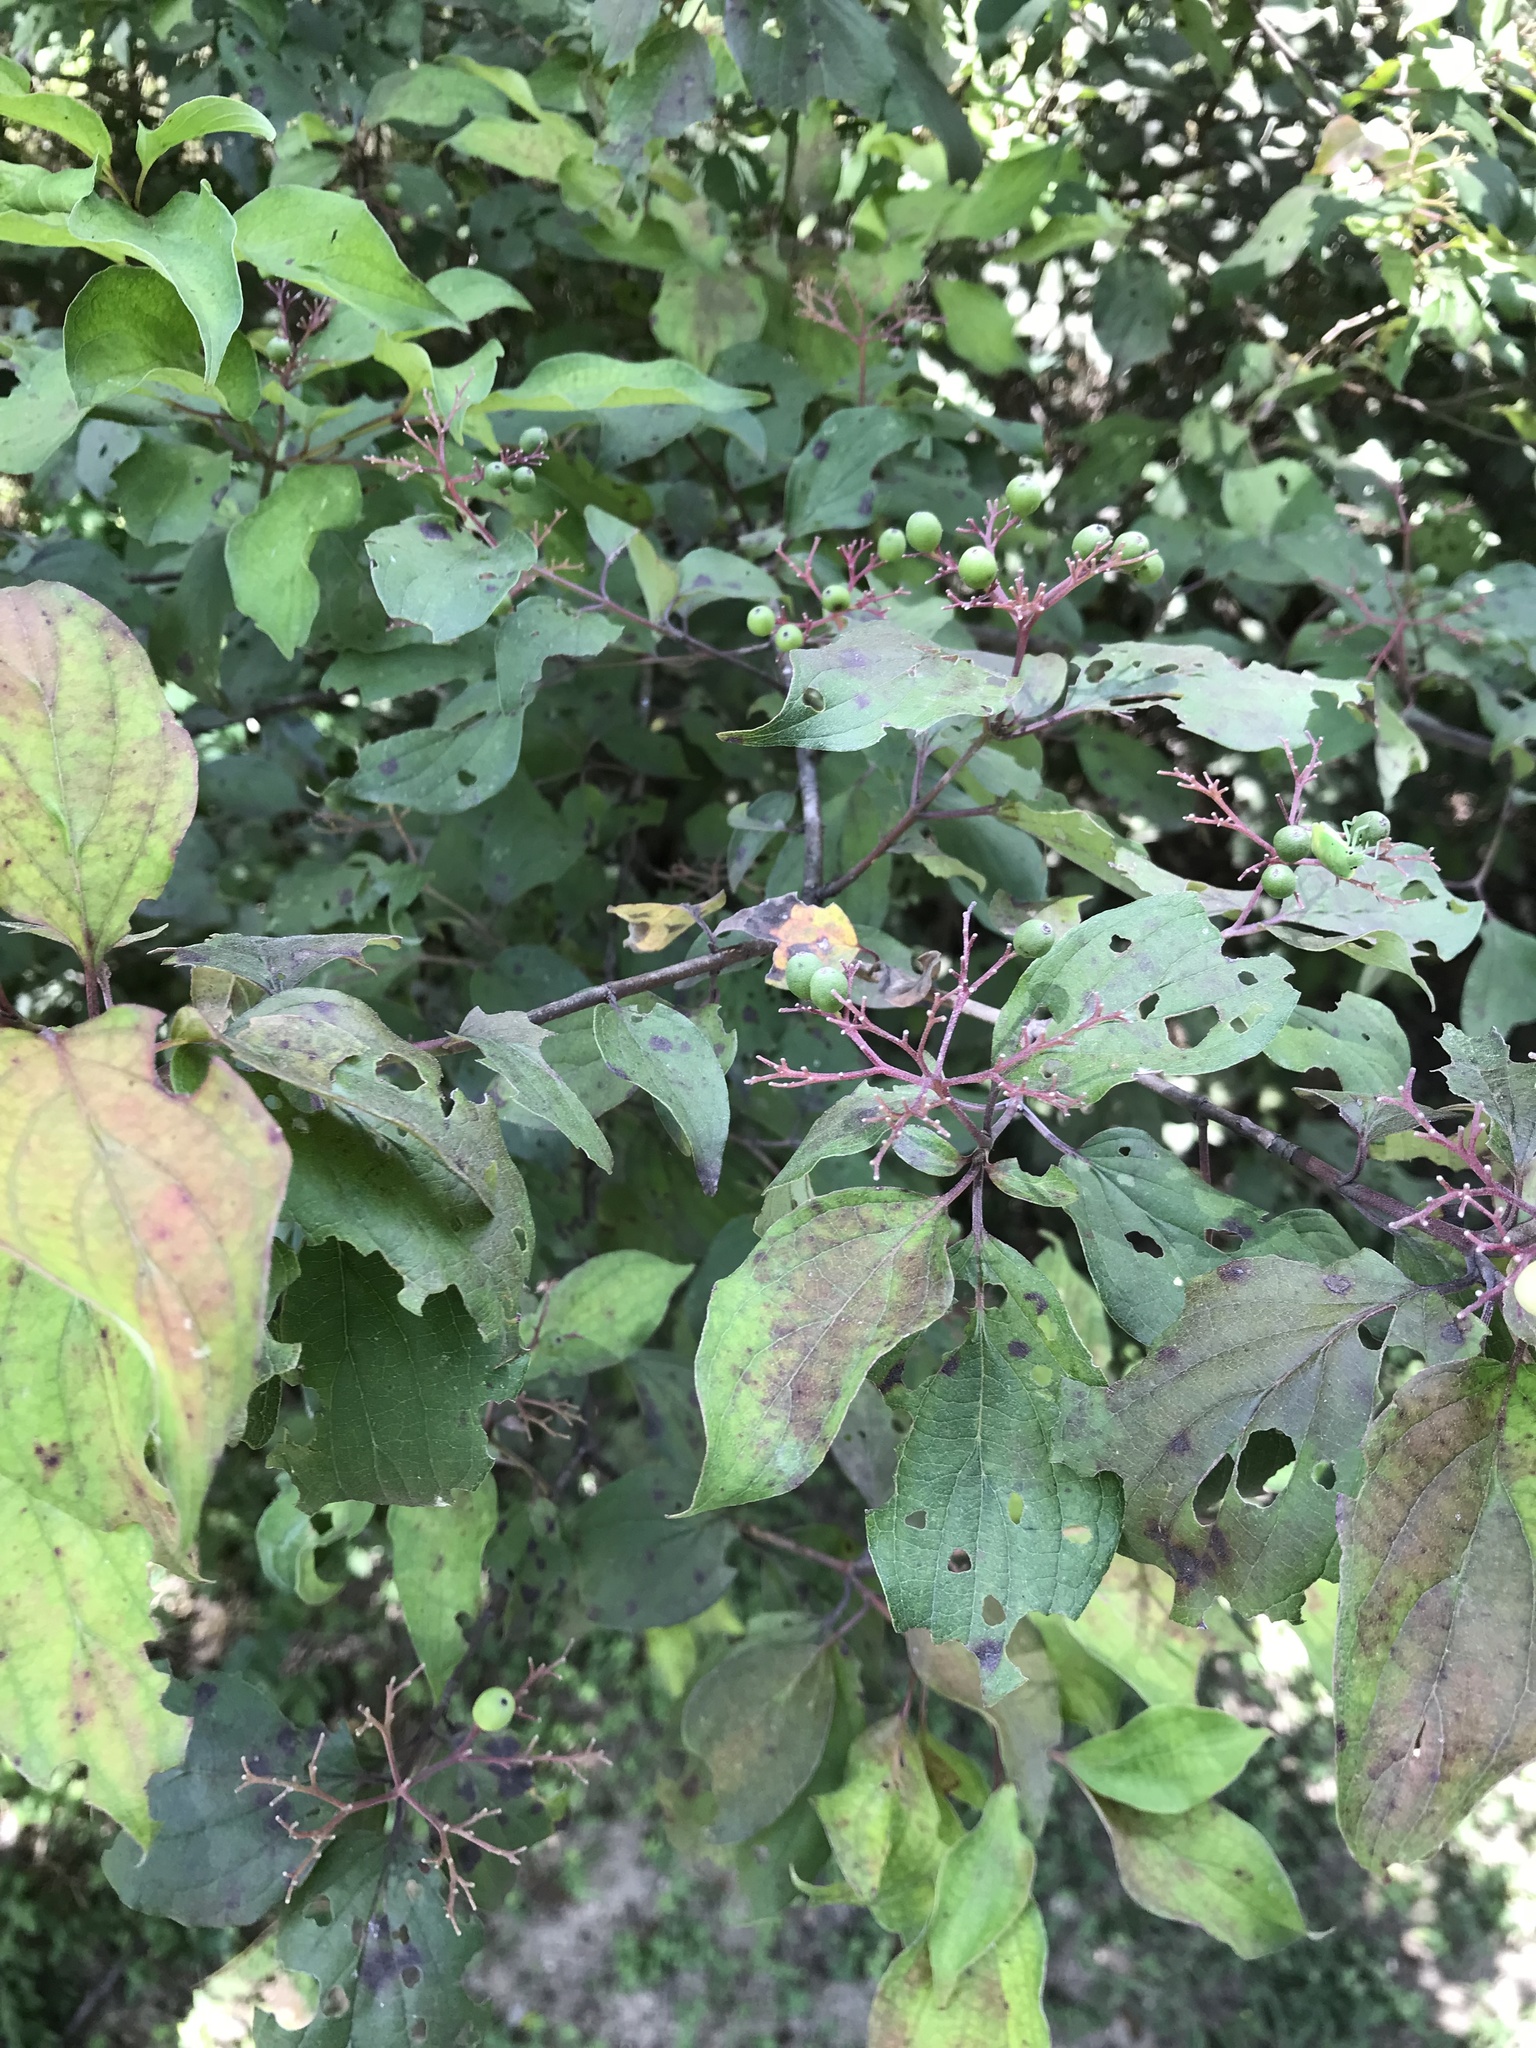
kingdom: Plantae
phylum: Tracheophyta
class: Magnoliopsida
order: Cornales
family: Cornaceae
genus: Cornus
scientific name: Cornus drummondii
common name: Rough-leaf dogwood
